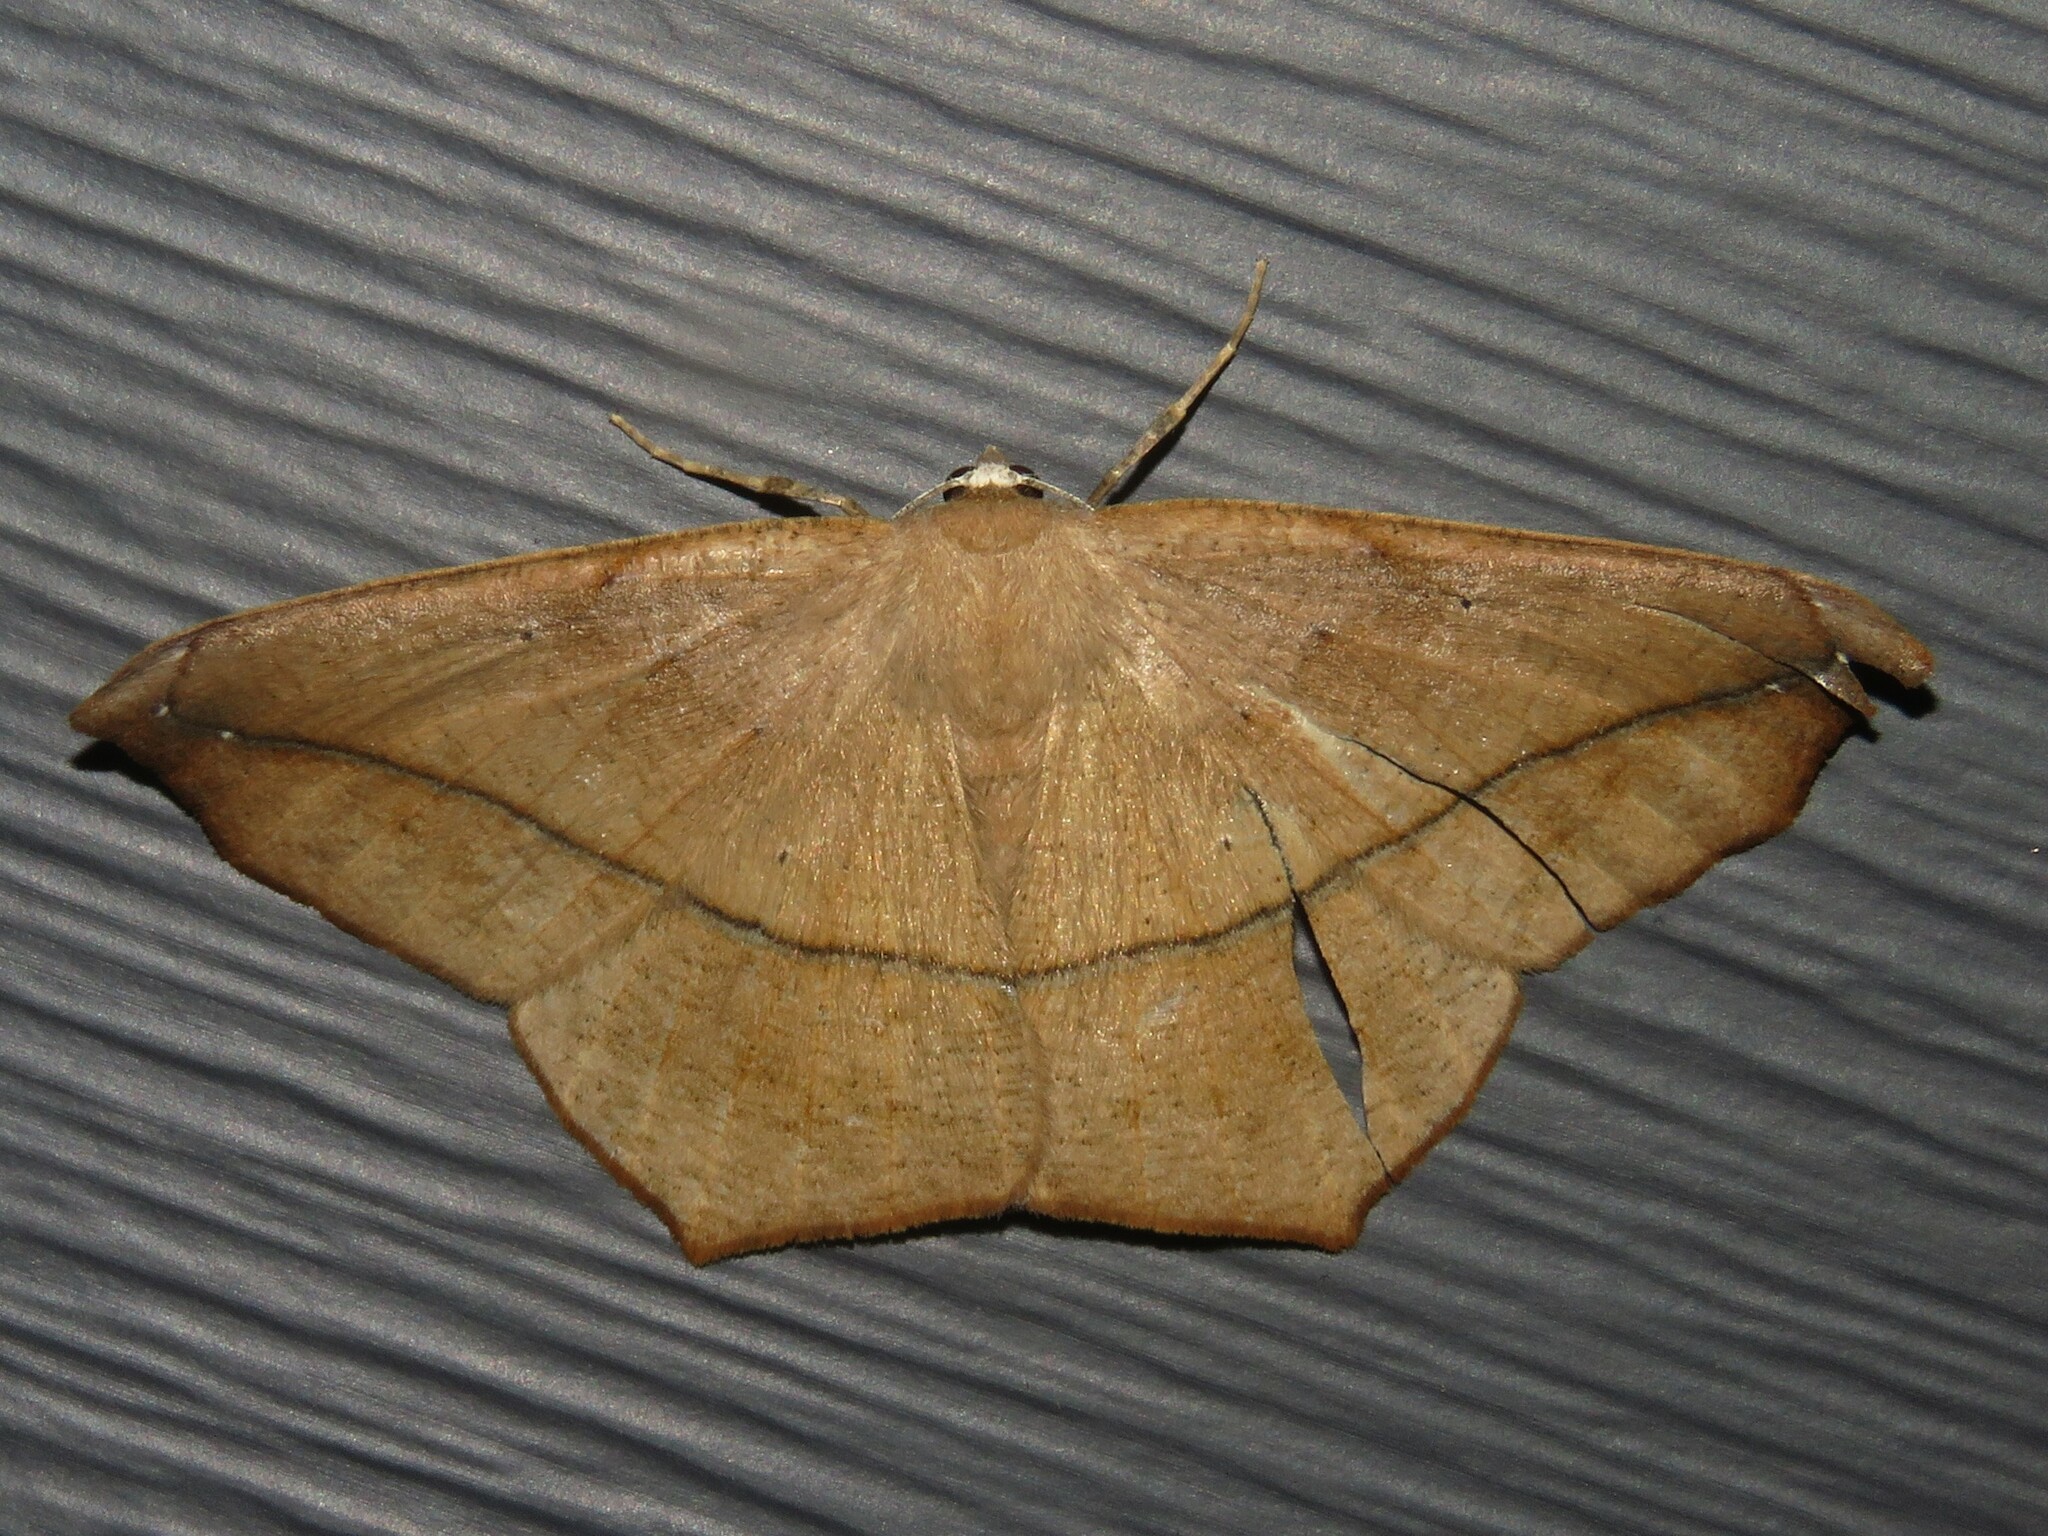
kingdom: Animalia
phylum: Arthropoda
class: Insecta
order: Lepidoptera
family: Geometridae
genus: Prochoerodes
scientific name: Prochoerodes lineola
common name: Large maple spanworm
